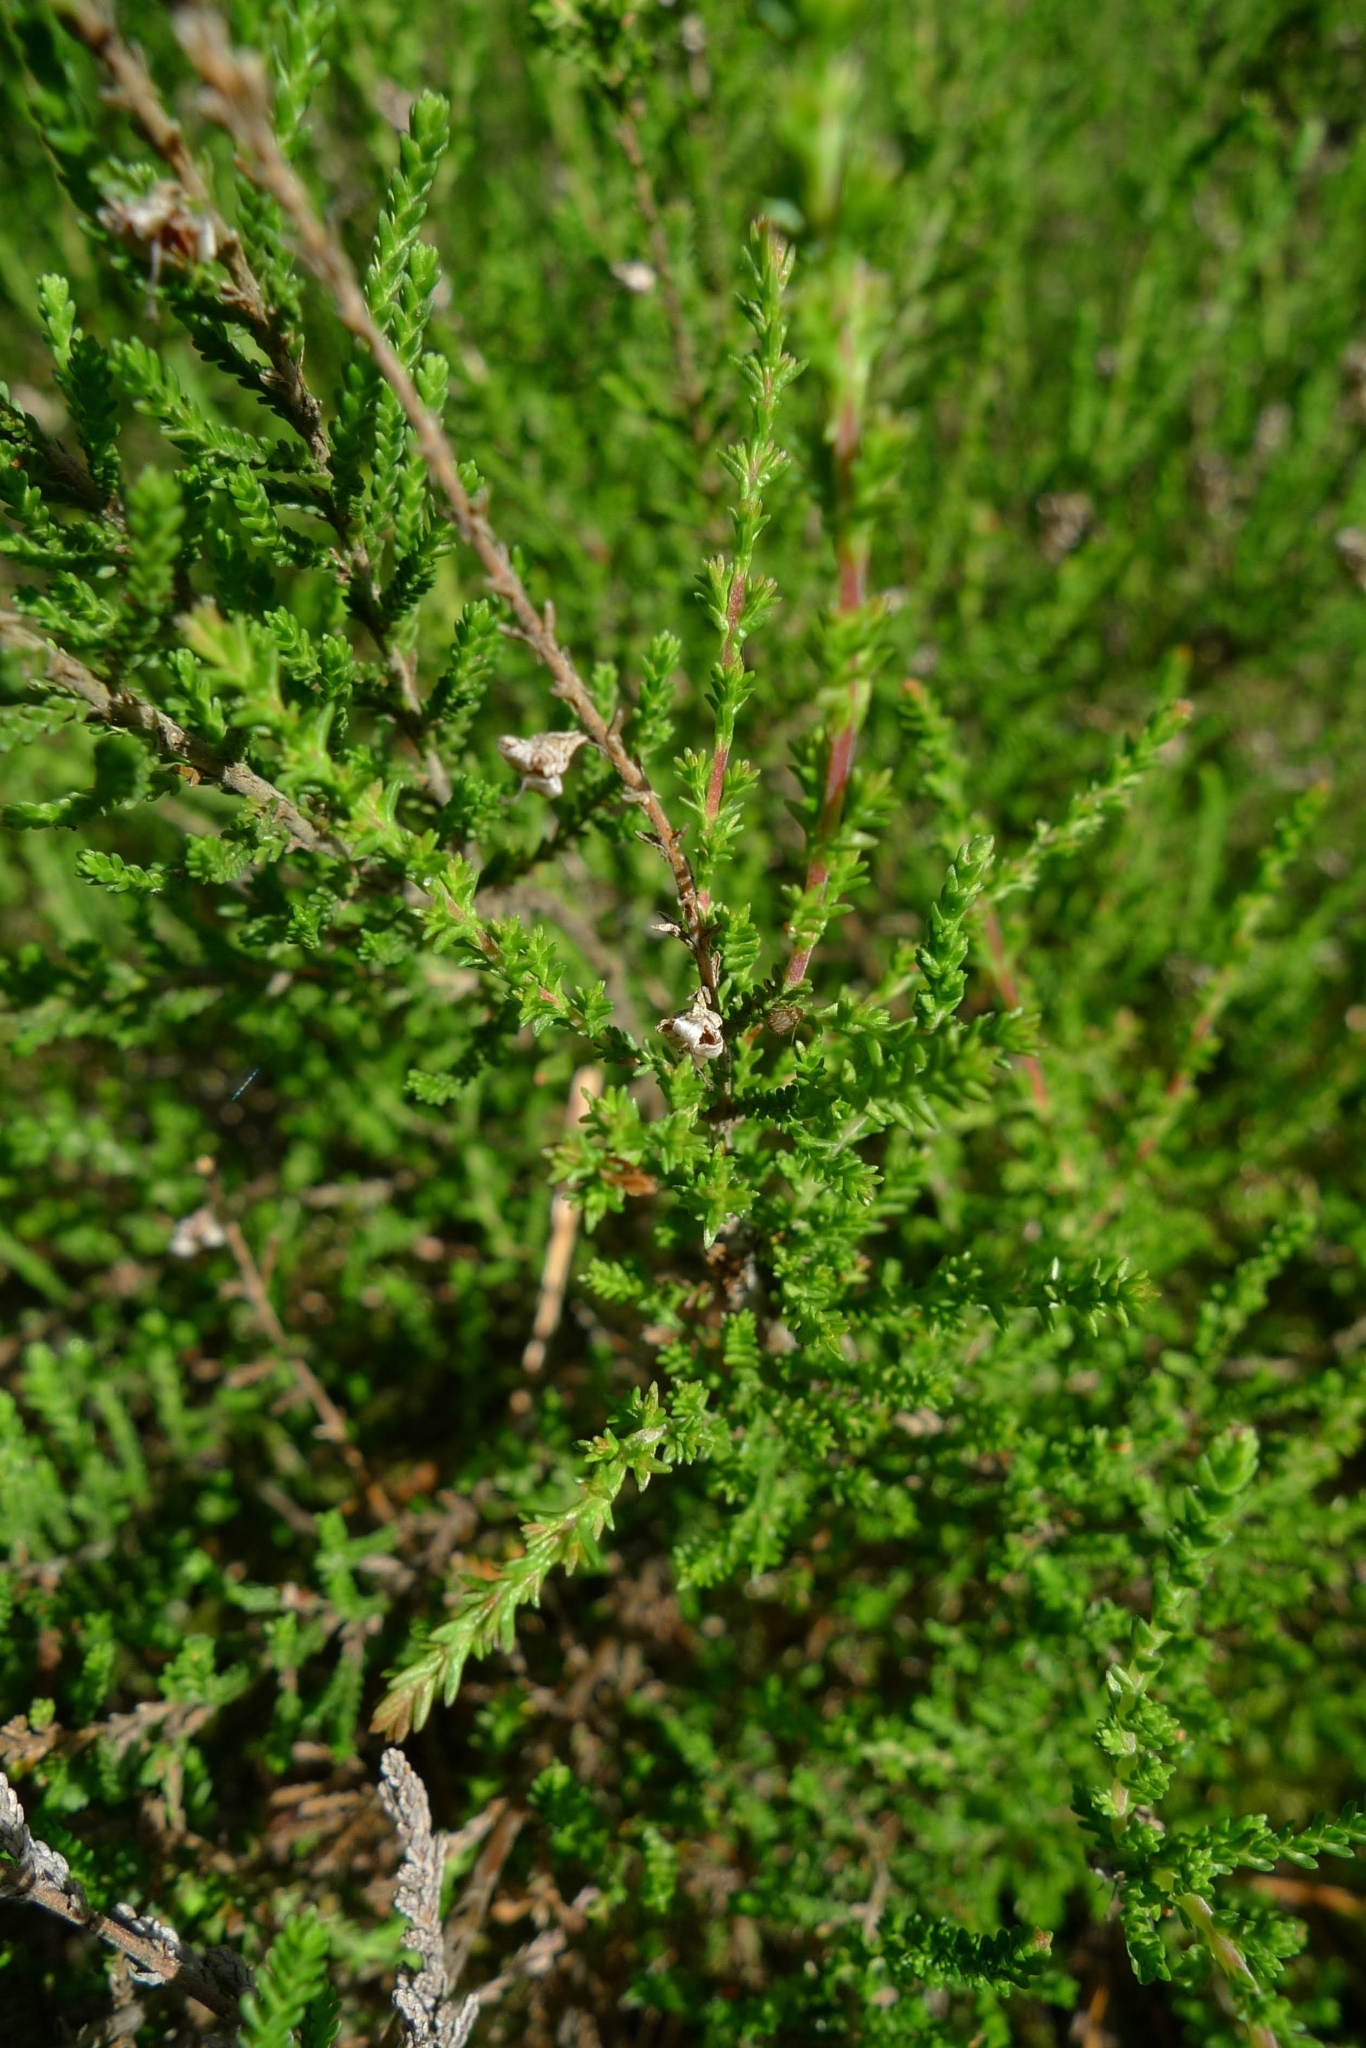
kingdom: Plantae
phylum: Tracheophyta
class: Magnoliopsida
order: Ericales
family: Ericaceae
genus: Calluna
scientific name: Calluna vulgaris
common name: Heather
